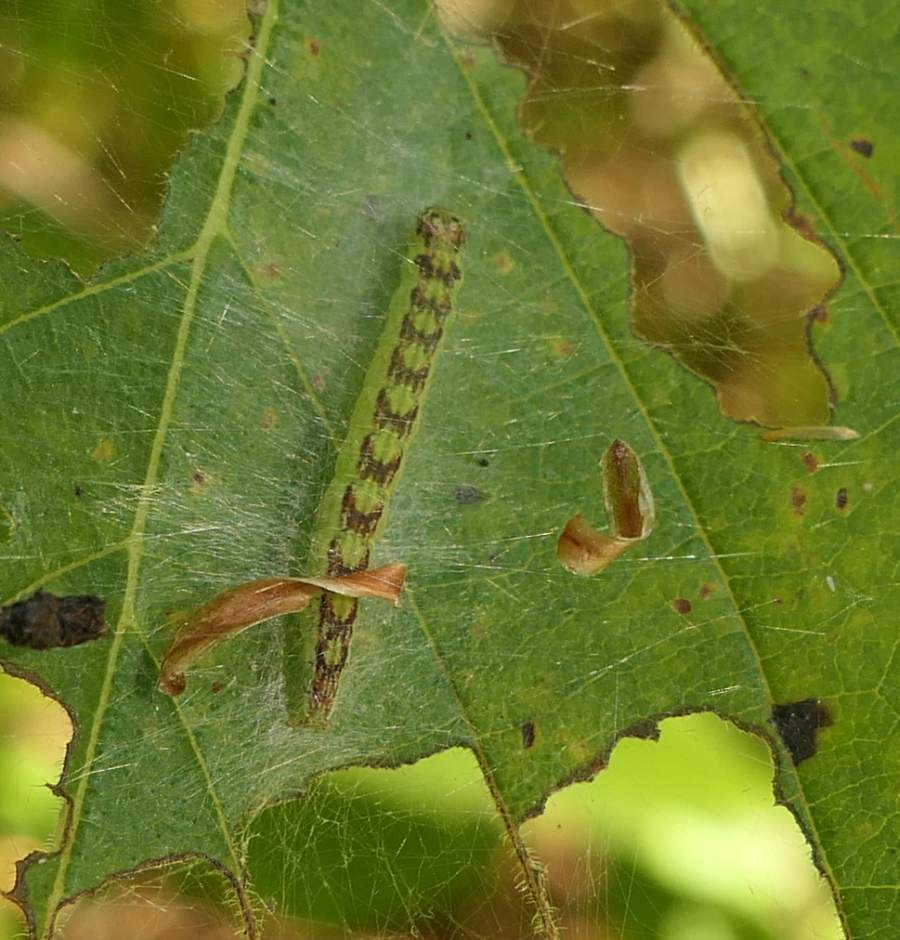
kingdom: Animalia
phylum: Arthropoda
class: Insecta
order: Lepidoptera
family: Pyralidae
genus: Oreana
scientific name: Oreana unicolorella
